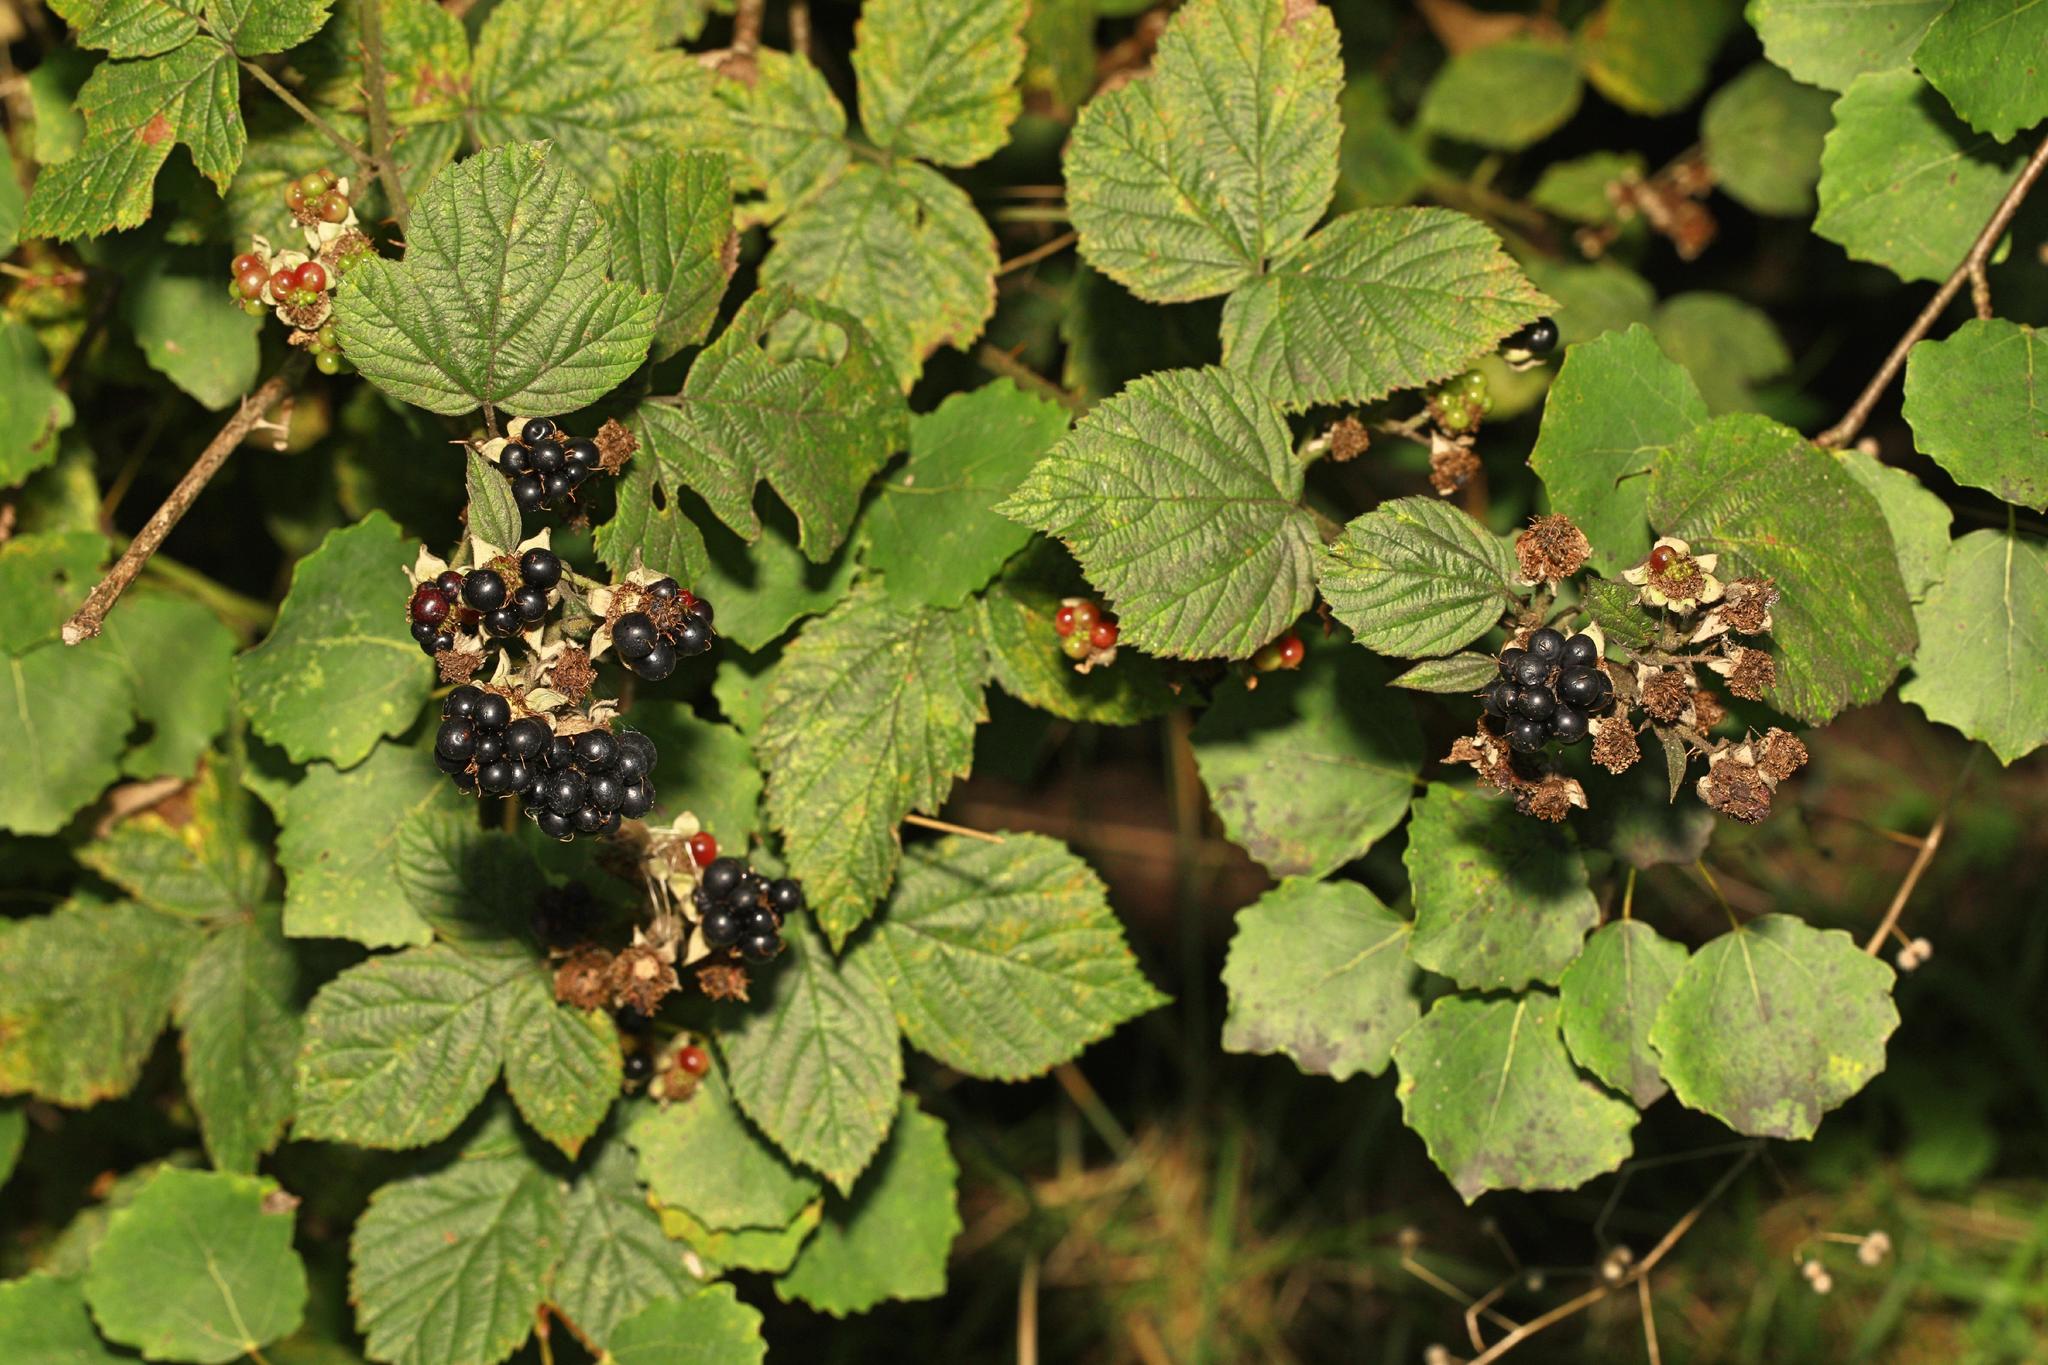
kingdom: Plantae
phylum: Tracheophyta
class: Magnoliopsida
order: Rosales
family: Rosaceae
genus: Rubus
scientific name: Rubus horrefactus
